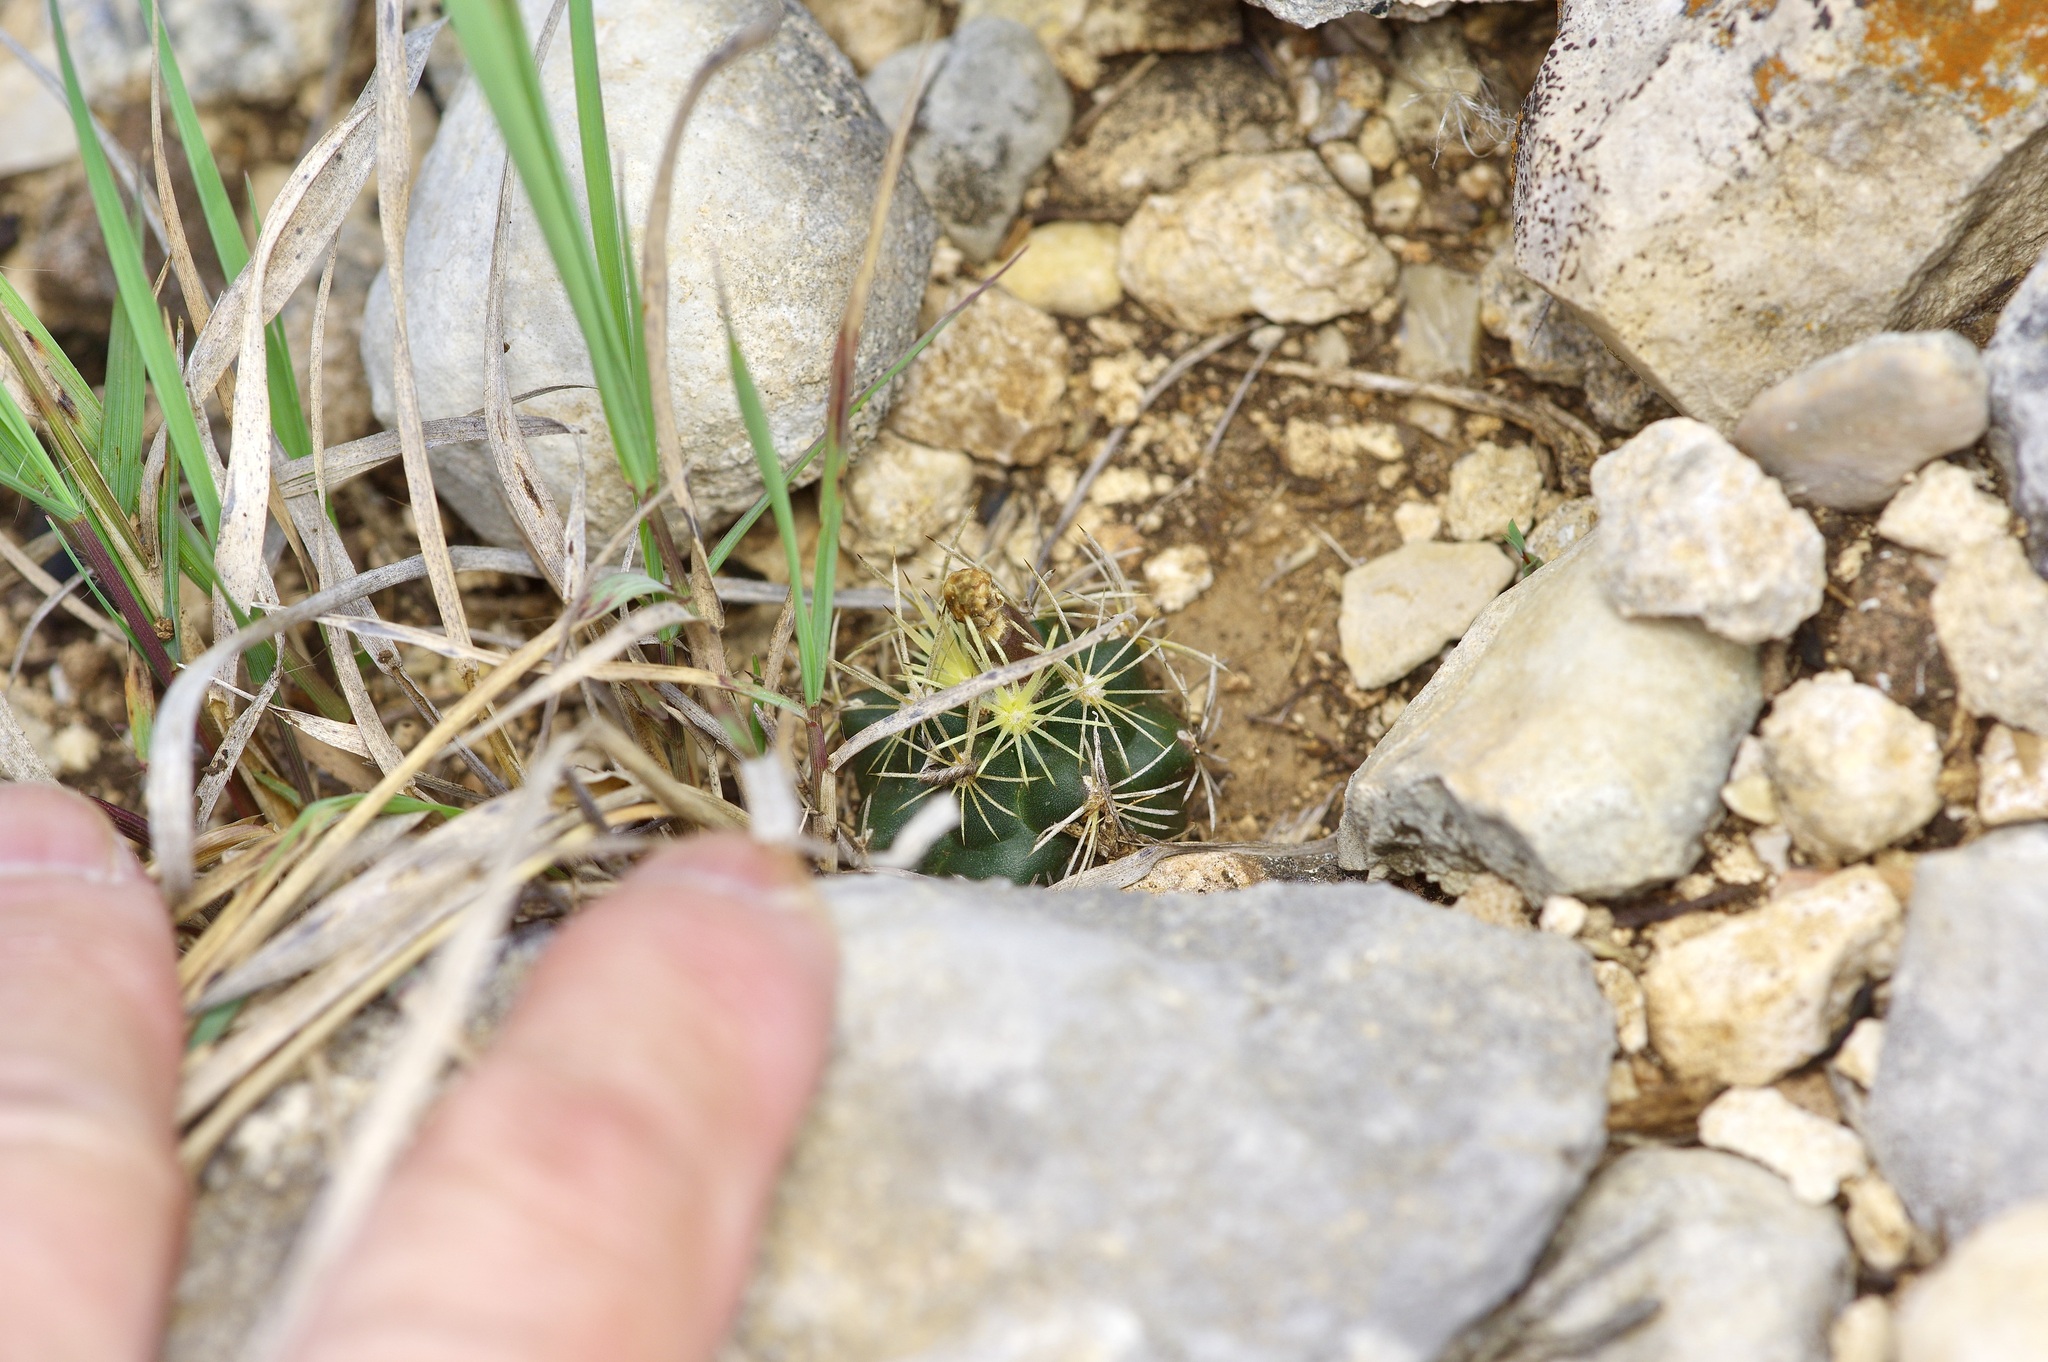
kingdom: Plantae
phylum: Tracheophyta
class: Magnoliopsida
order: Caryophyllales
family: Cactaceae
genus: Sclerocactus
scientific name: Sclerocactus brevihamatus
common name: Engelmann's fishhook cactus
